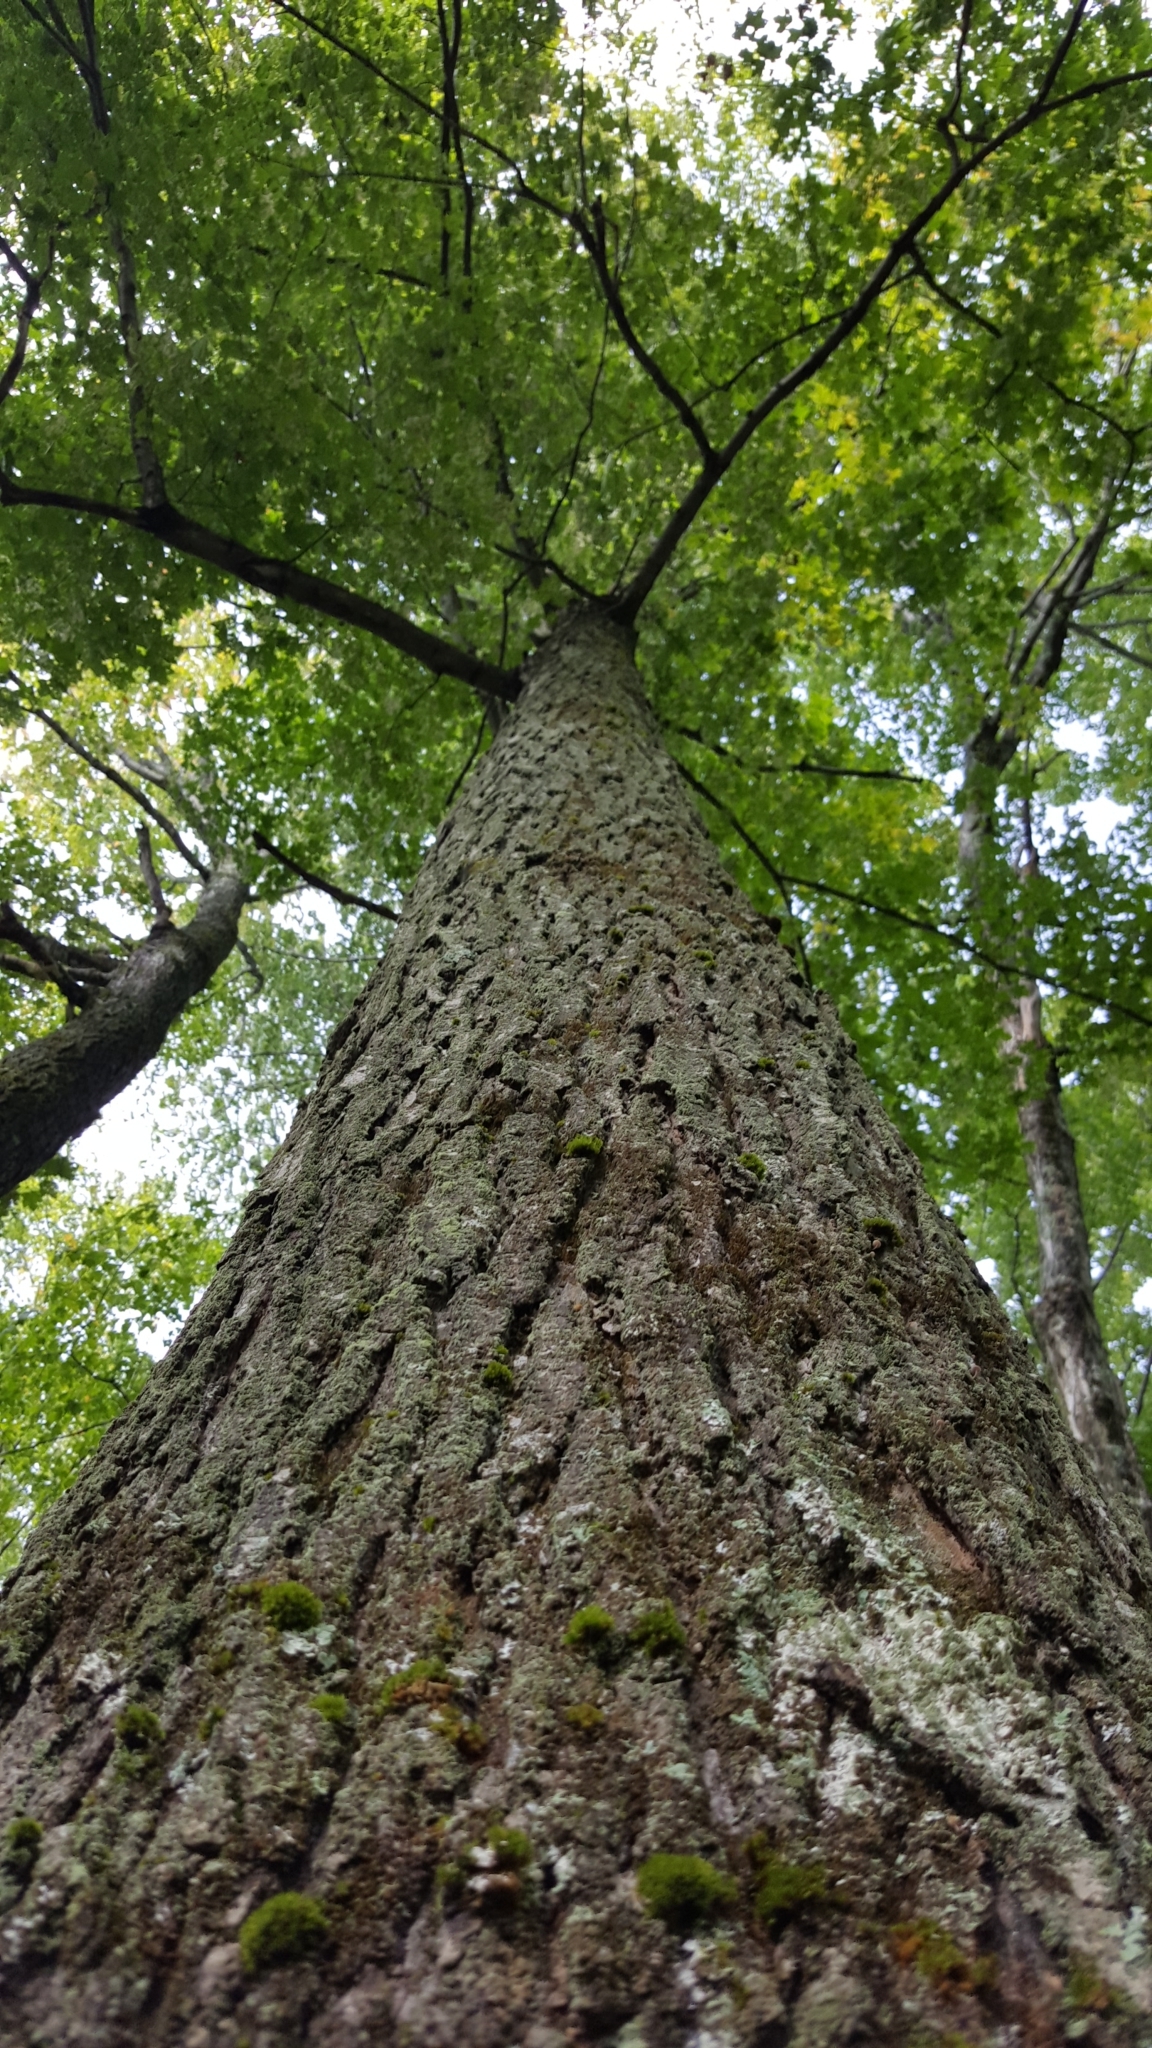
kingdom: Plantae
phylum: Tracheophyta
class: Magnoliopsida
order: Sapindales
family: Sapindaceae
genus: Acer
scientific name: Acer saccharum
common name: Sugar maple
